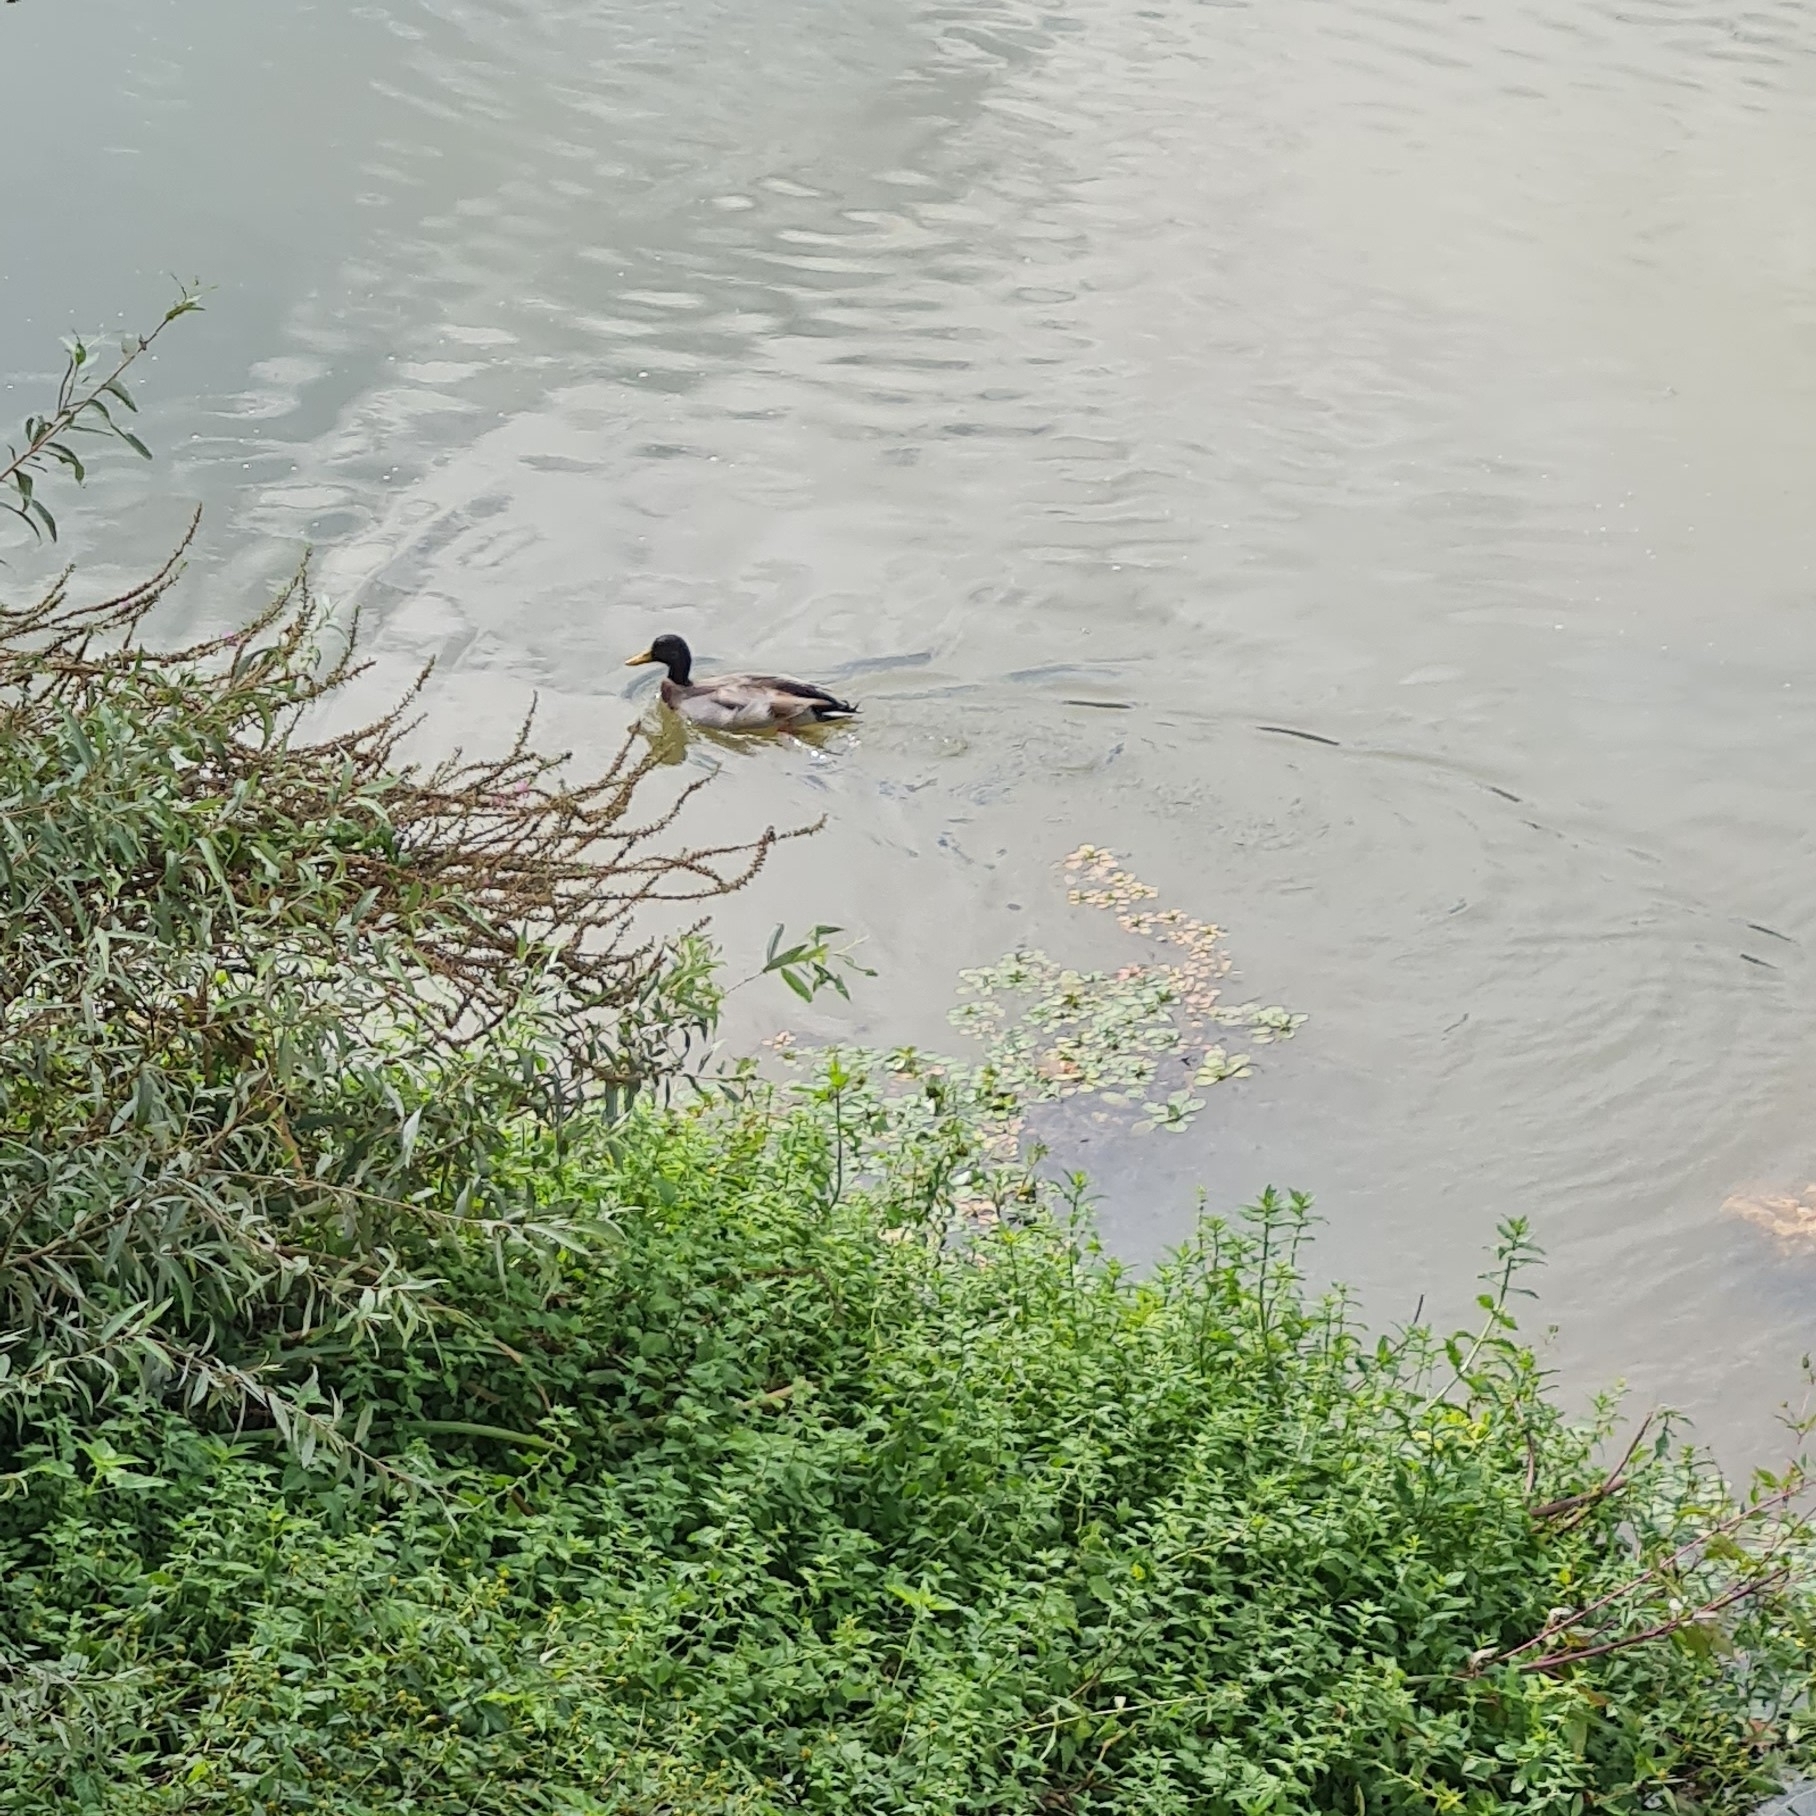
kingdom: Animalia
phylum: Chordata
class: Aves
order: Anseriformes
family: Anatidae
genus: Anas
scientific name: Anas platyrhynchos
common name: Mallard
